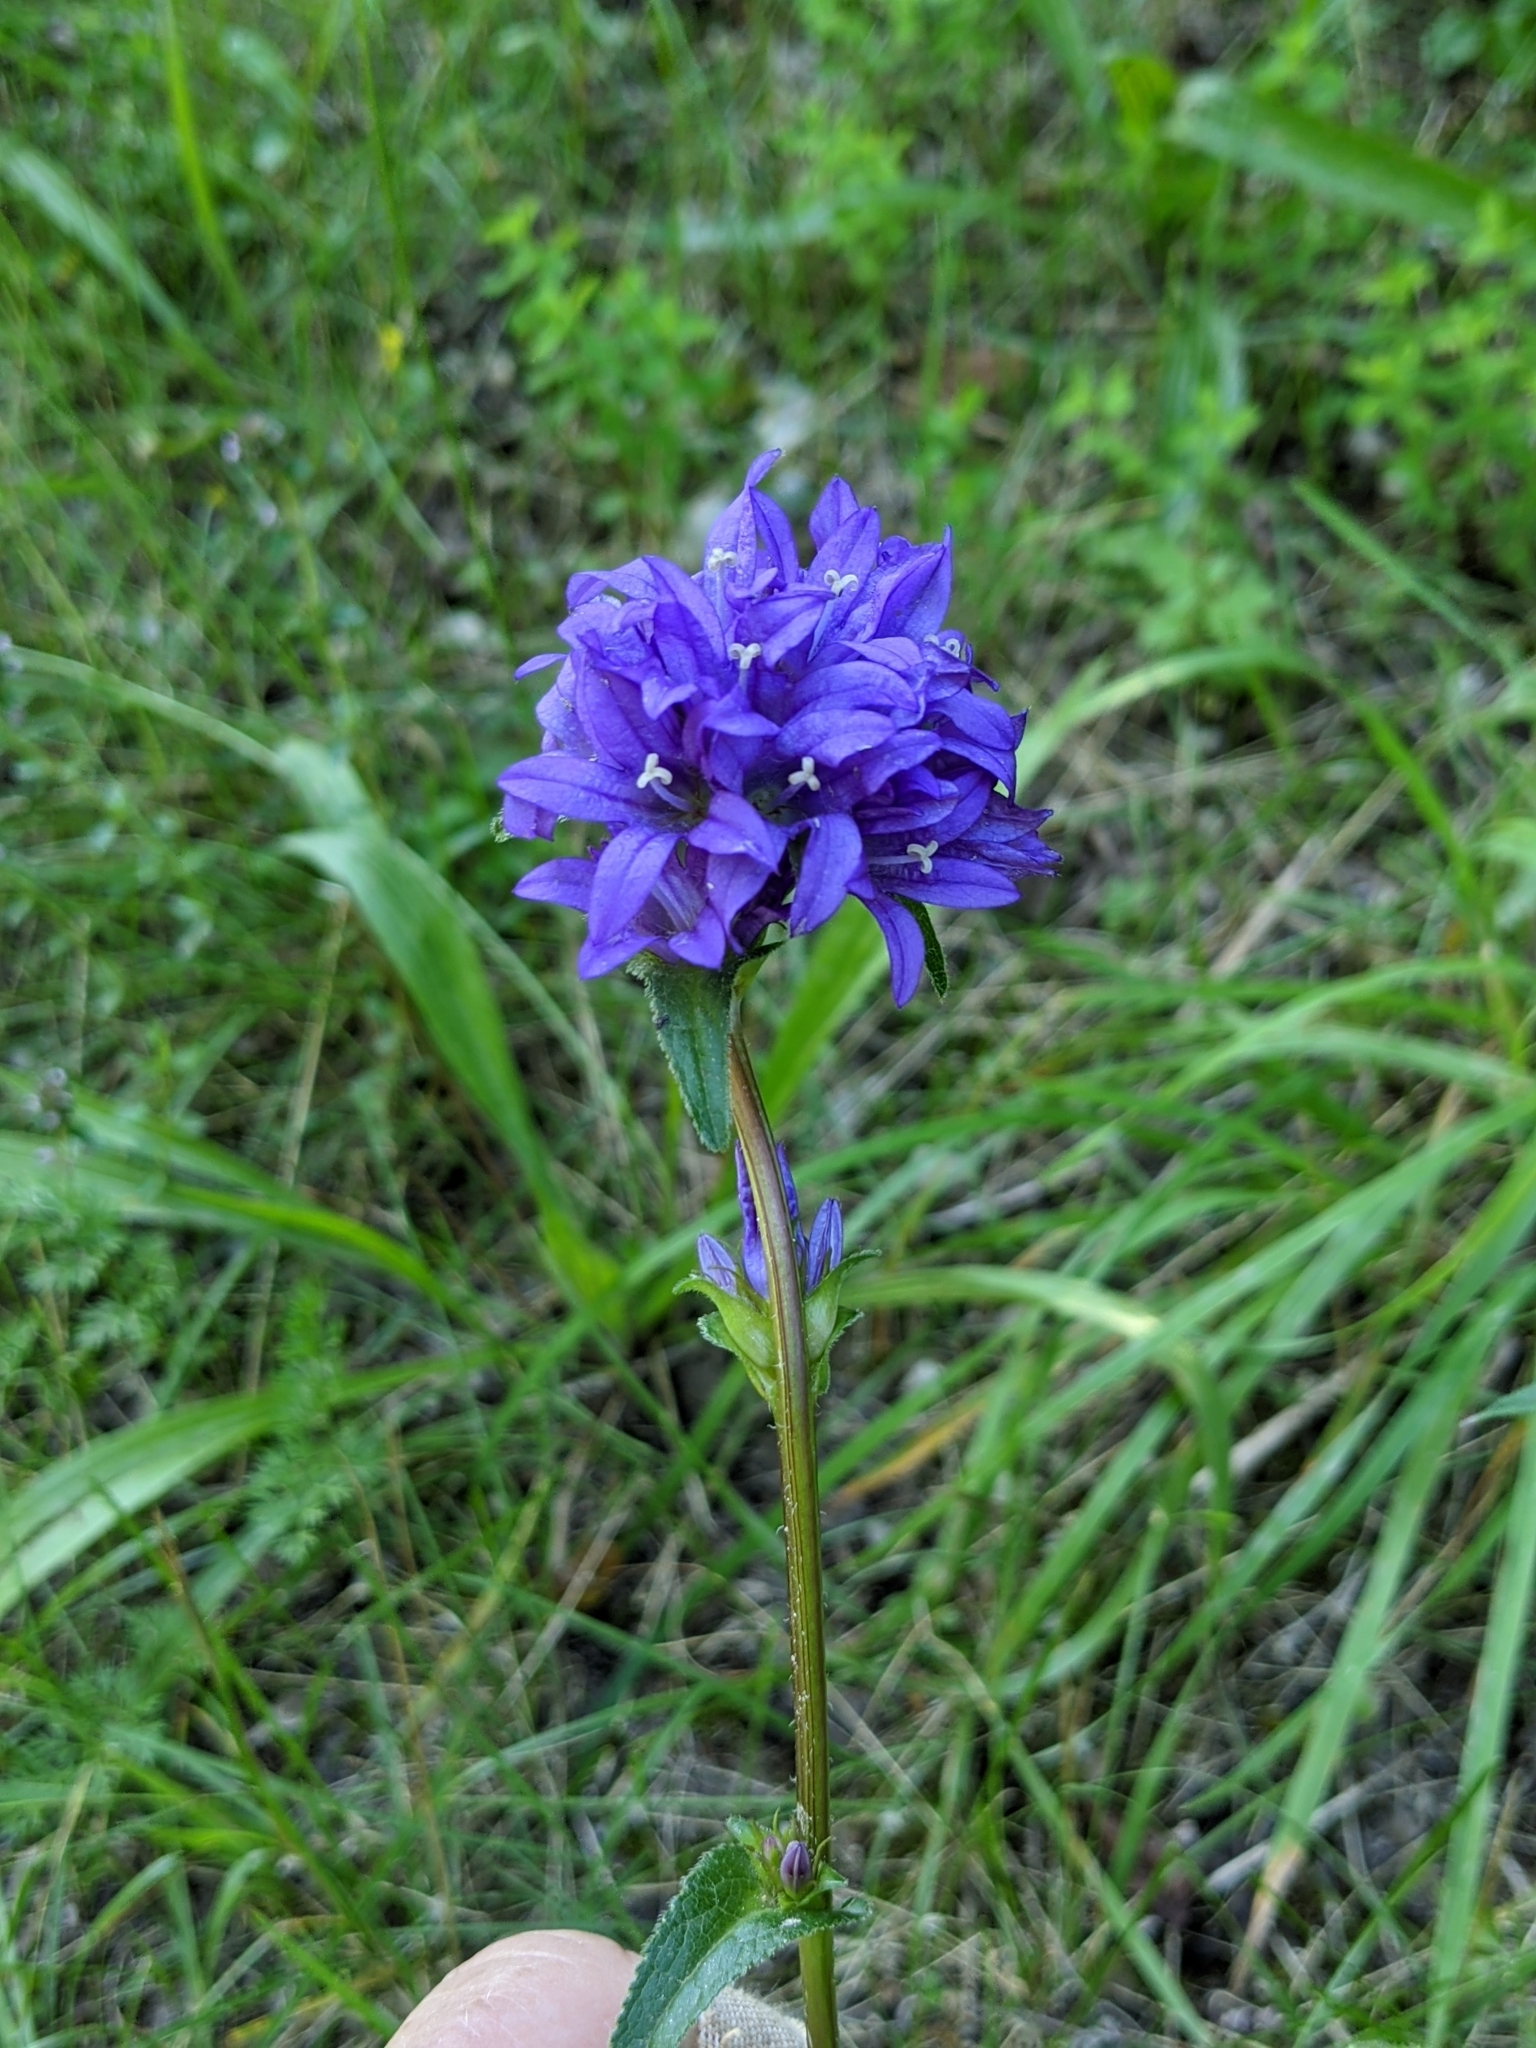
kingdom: Plantae
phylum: Tracheophyta
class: Magnoliopsida
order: Asterales
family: Campanulaceae
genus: Campanula
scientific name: Campanula glomerata
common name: Clustered bellflower
